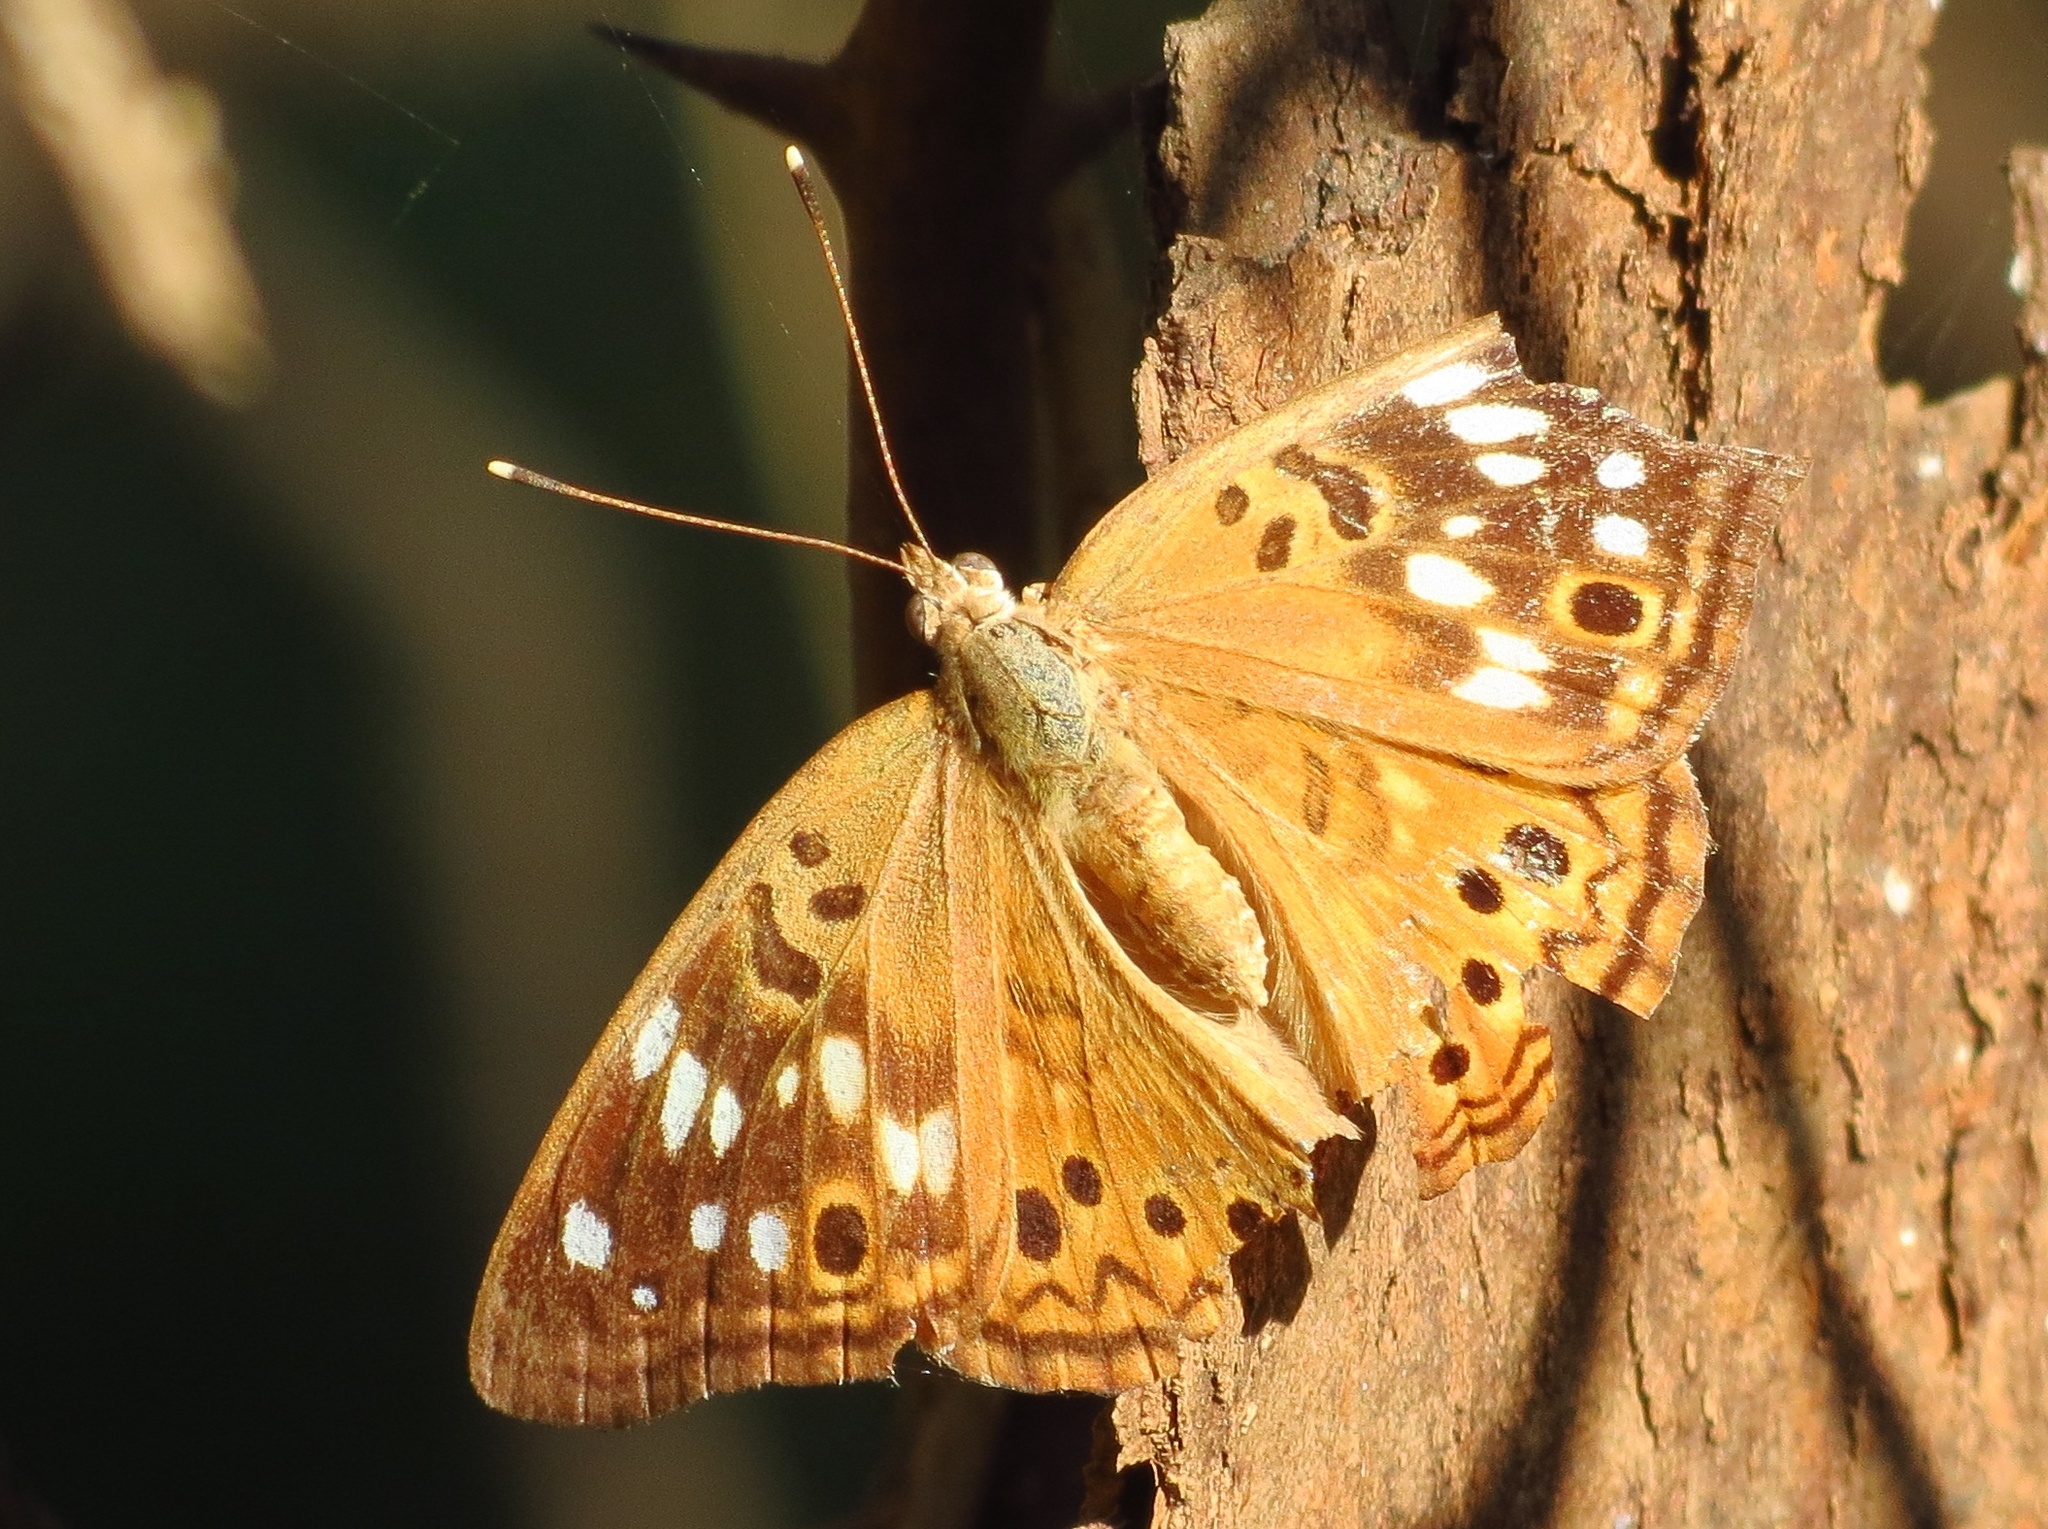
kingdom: Animalia
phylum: Arthropoda
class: Insecta
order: Lepidoptera
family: Nymphalidae
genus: Asterocampa
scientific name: Asterocampa celtis
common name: Hackberry emperor
